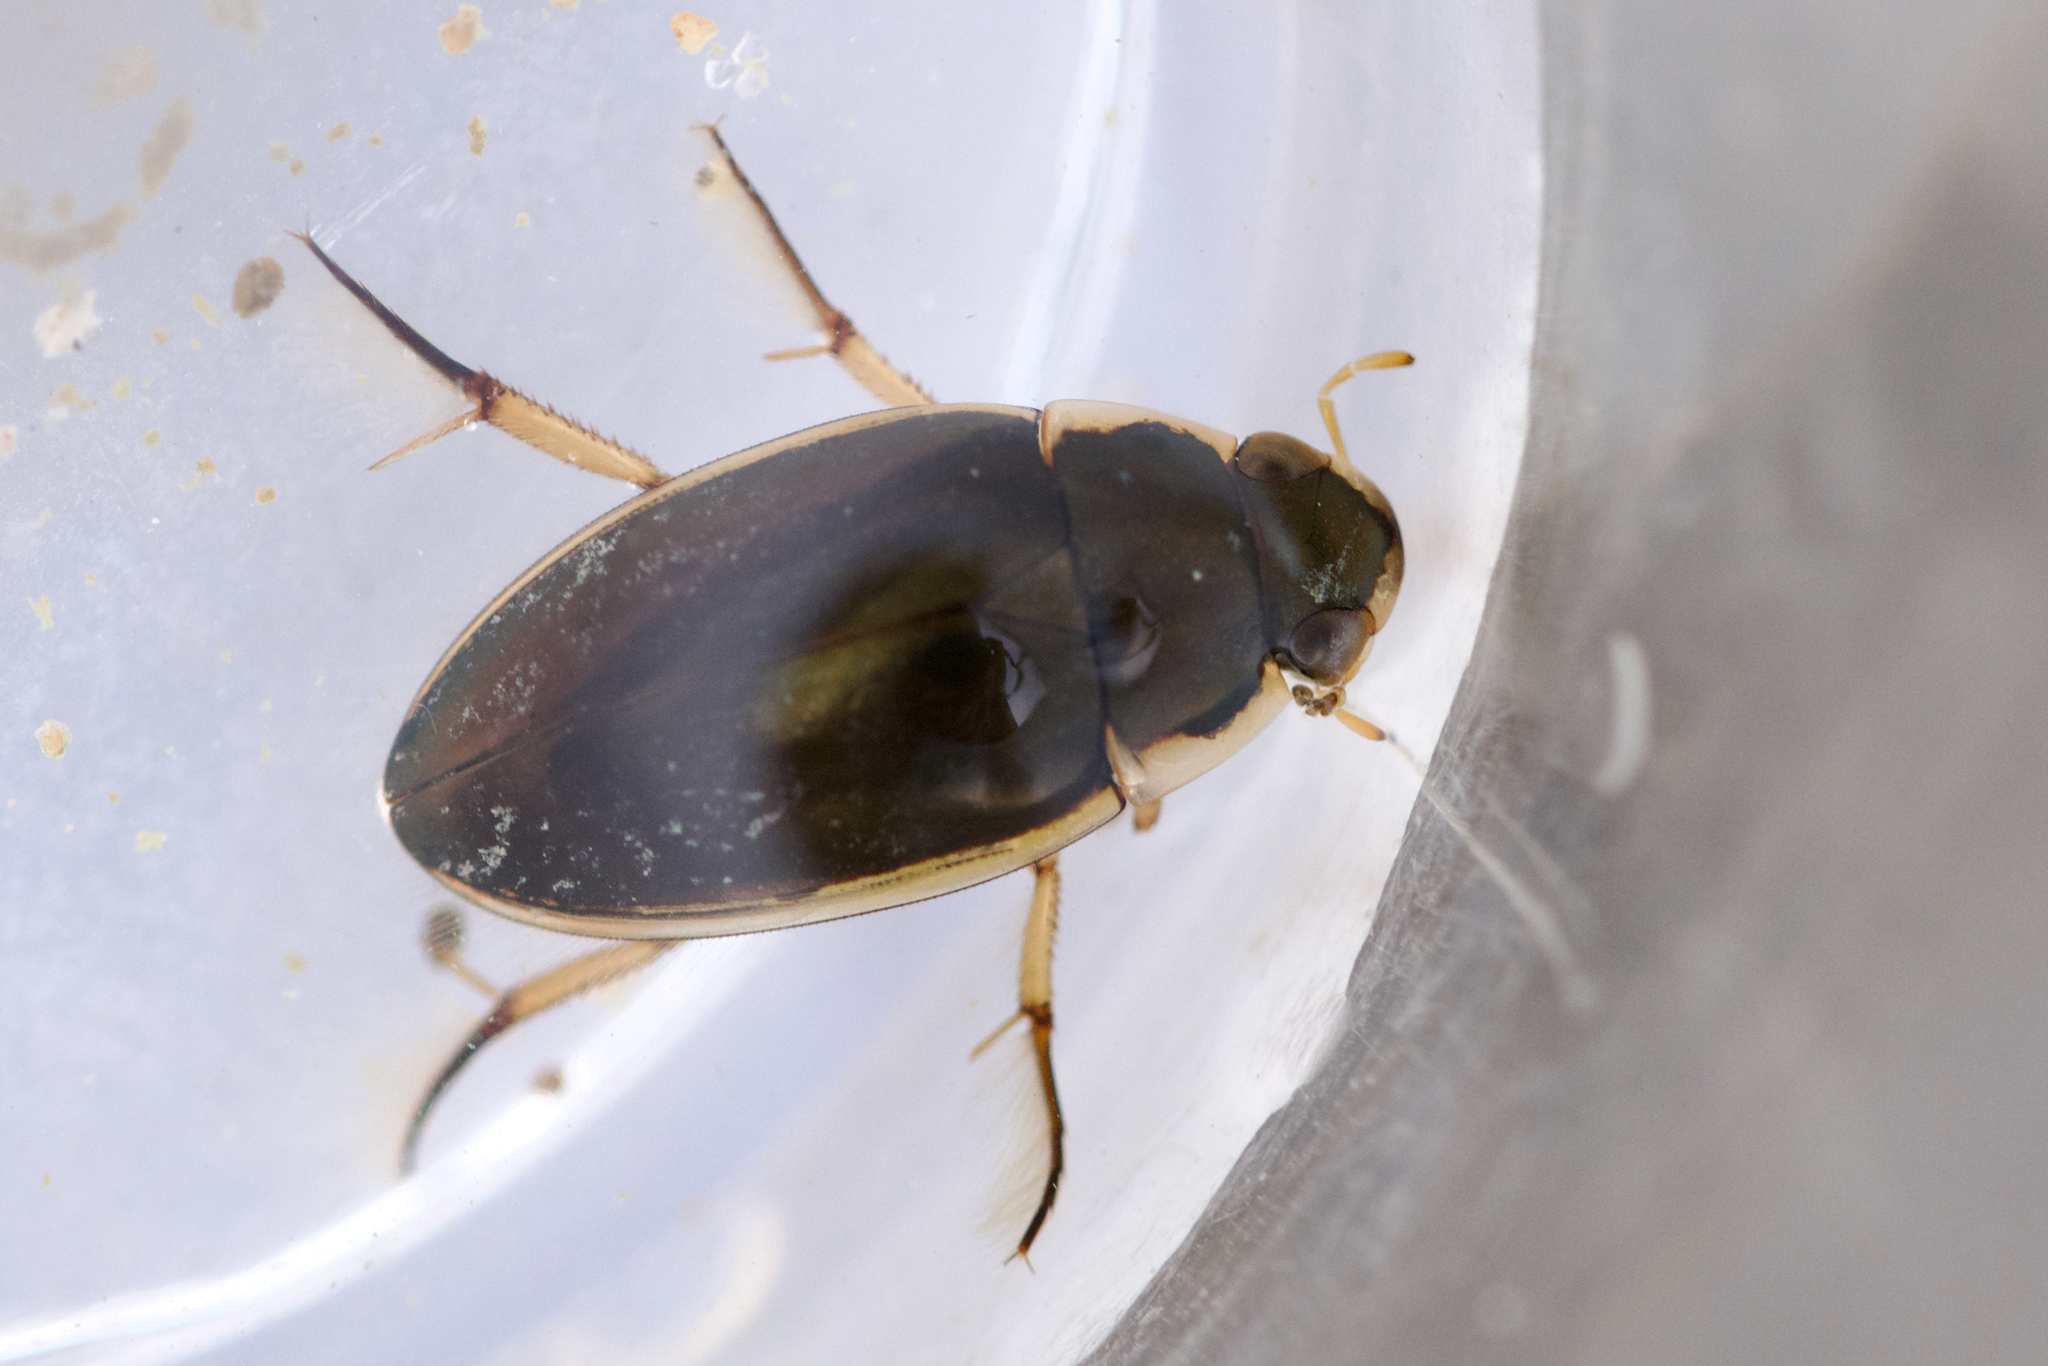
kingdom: Animalia
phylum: Arthropoda
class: Insecta
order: Coleoptera
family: Hydrophilidae
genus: Tropisternus
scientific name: Tropisternus lateralis
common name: Lateral-banded water scavenger beetle
